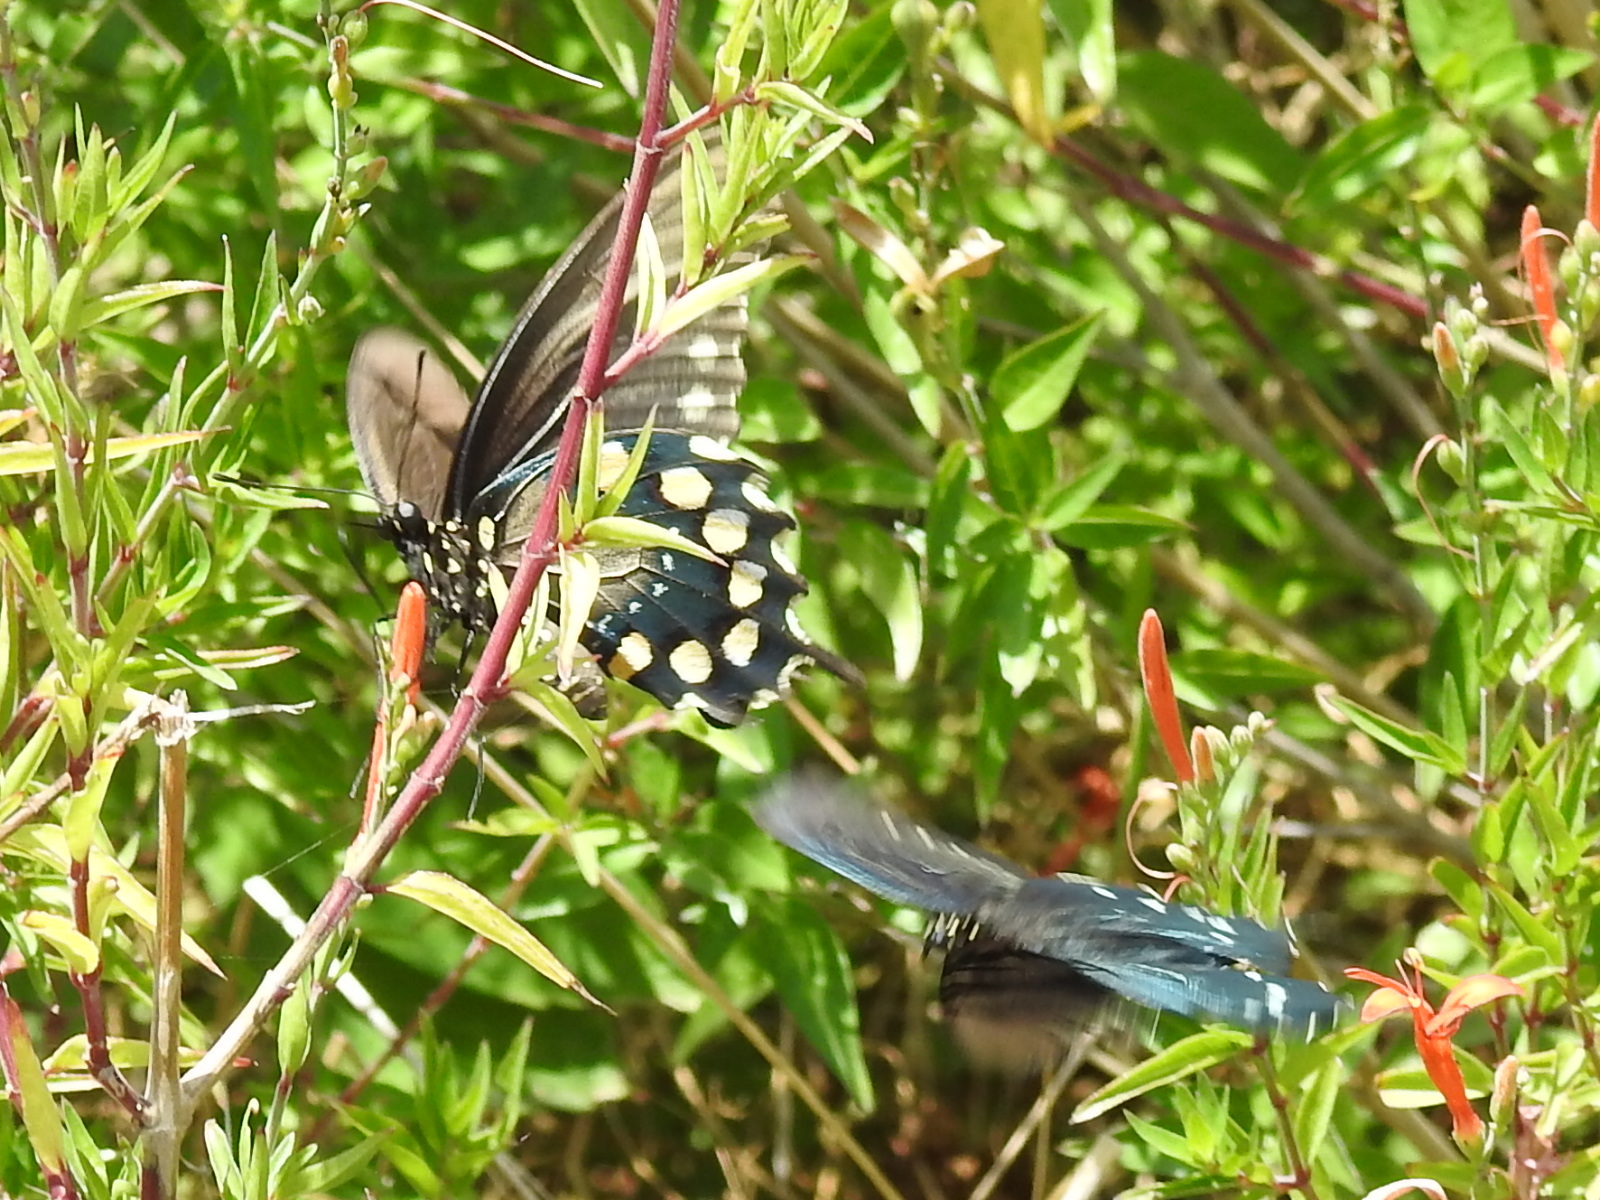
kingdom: Animalia
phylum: Arthropoda
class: Insecta
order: Lepidoptera
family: Papilionidae
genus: Battus
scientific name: Battus philenor
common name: Pipevine swallowtail
